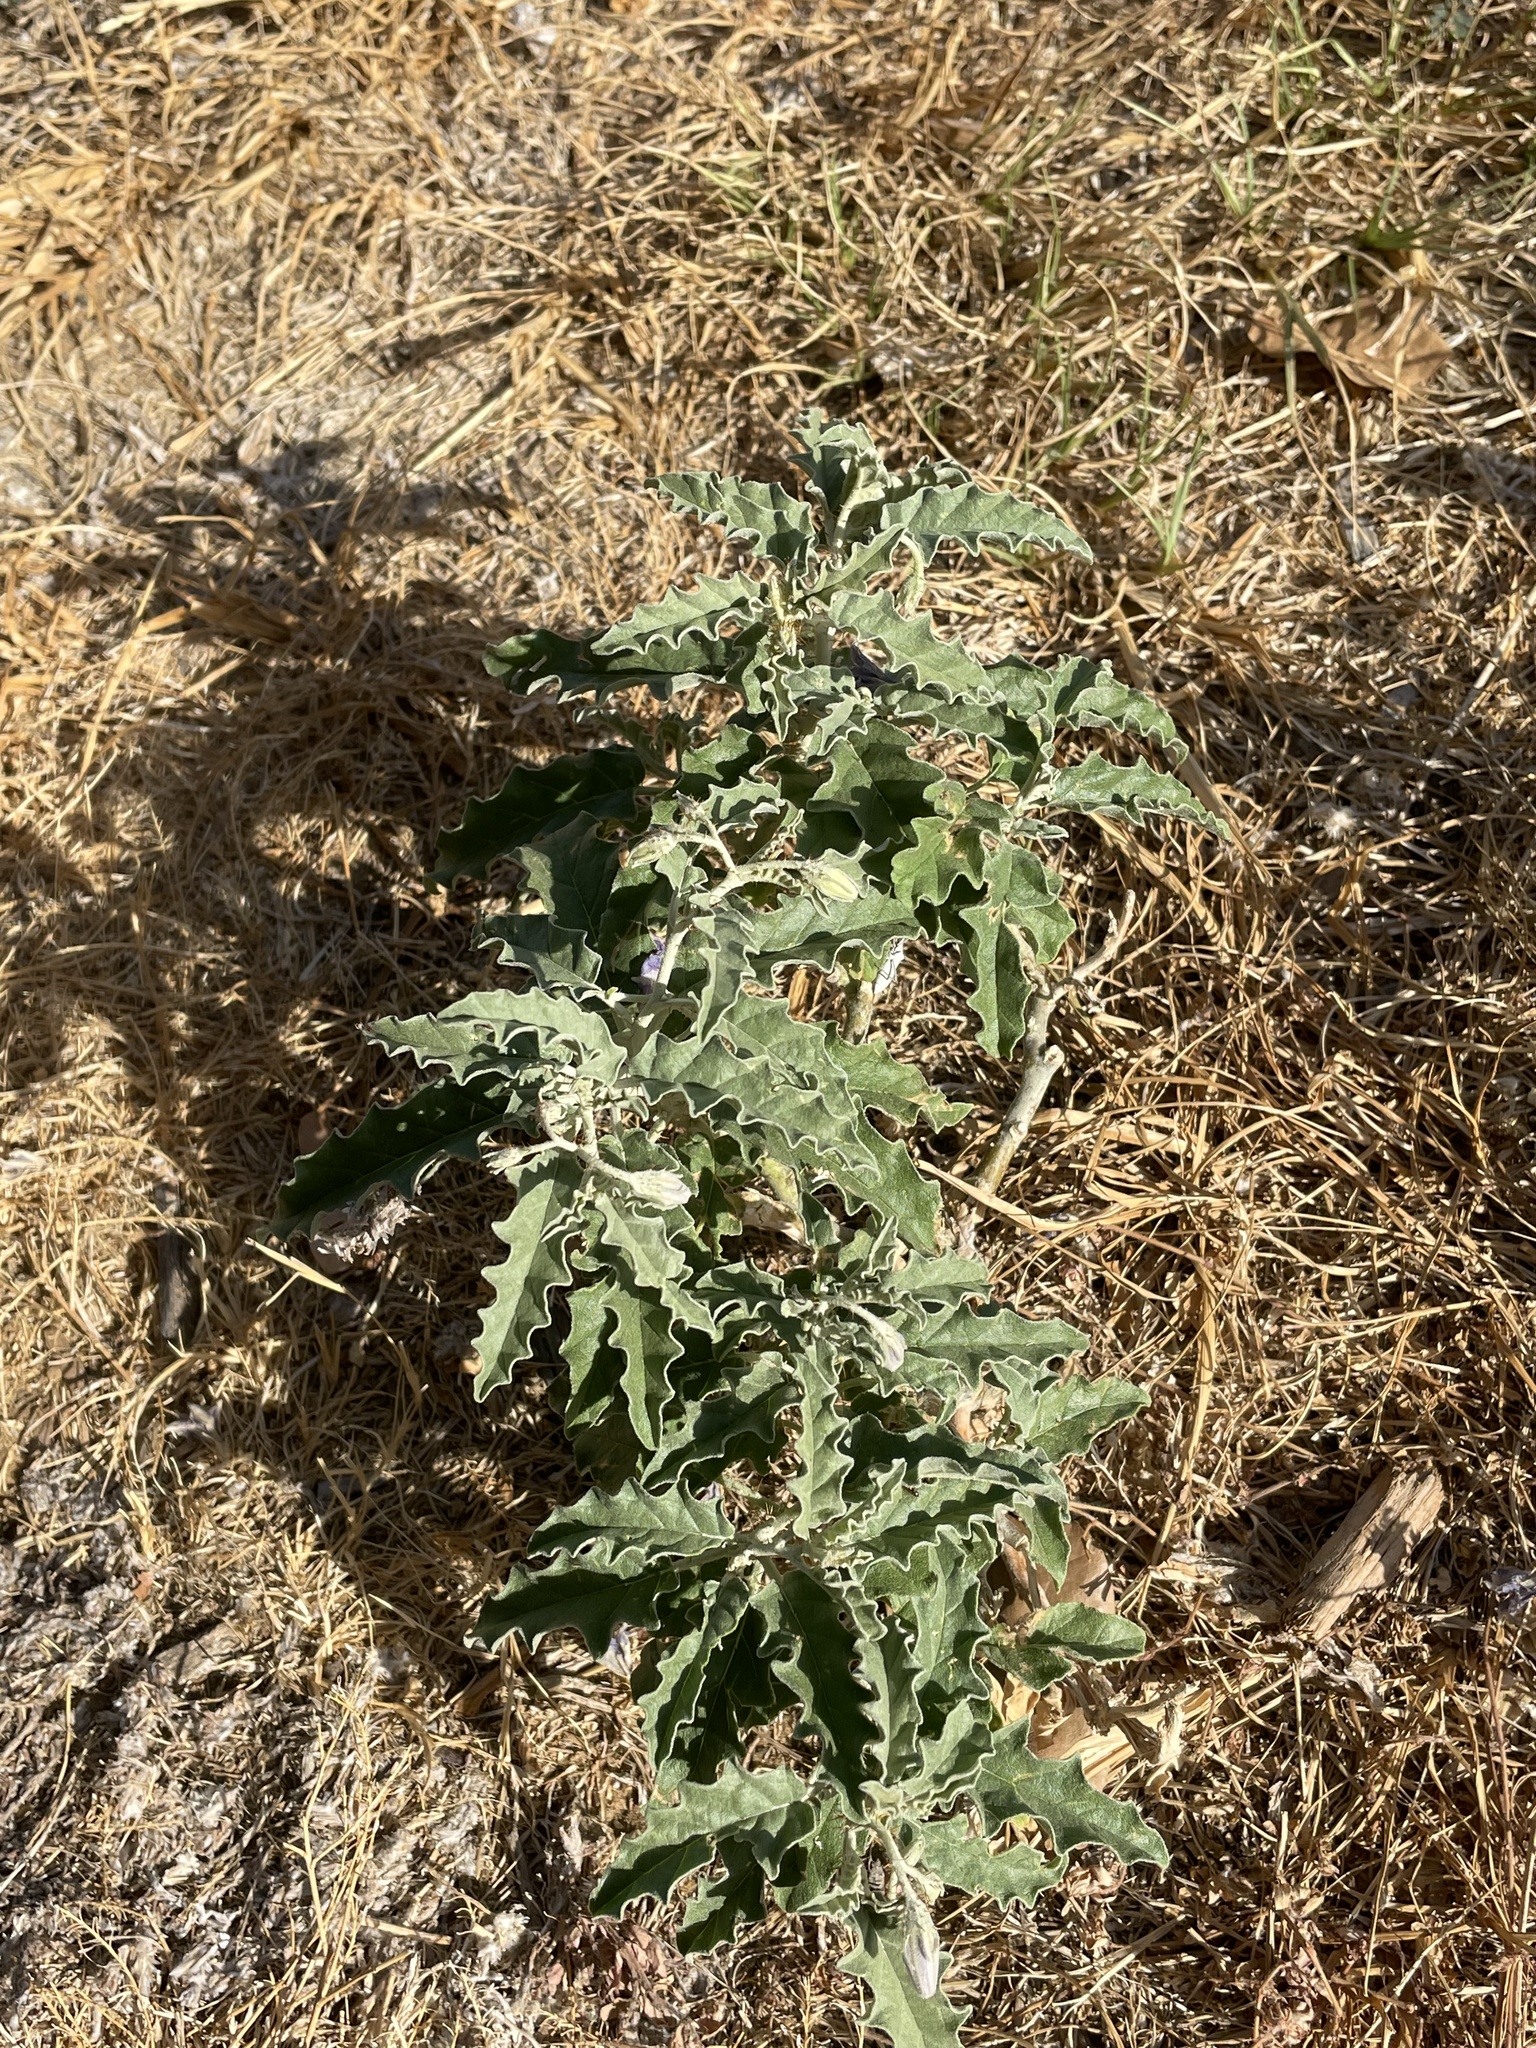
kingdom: Plantae
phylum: Tracheophyta
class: Magnoliopsida
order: Solanales
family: Solanaceae
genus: Solanum
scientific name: Solanum elaeagnifolium
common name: Silverleaf nightshade
